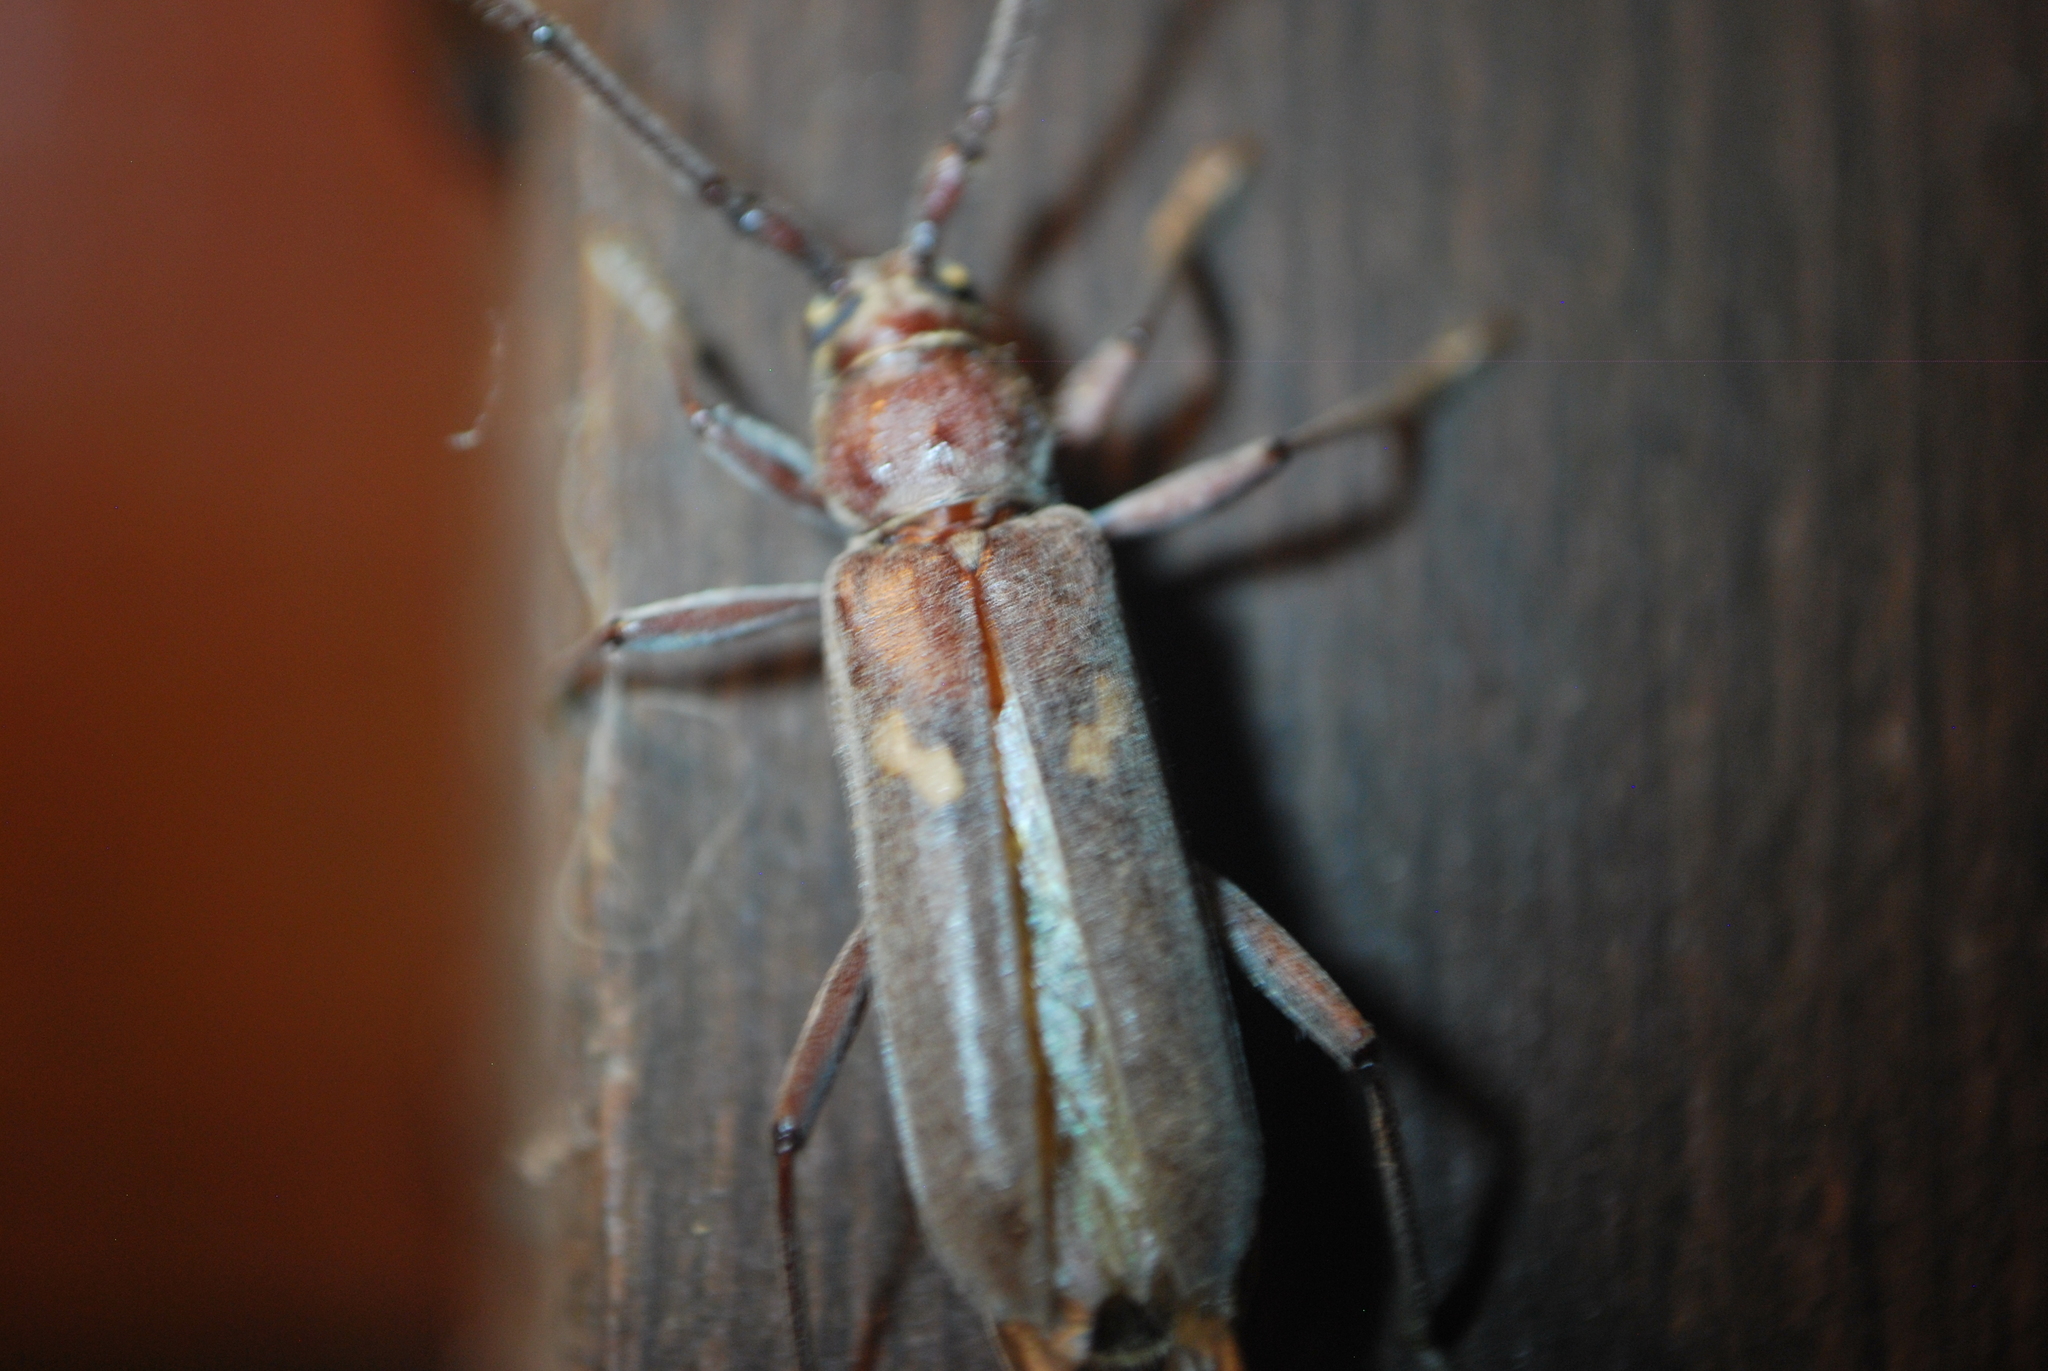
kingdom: Animalia
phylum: Arthropoda
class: Insecta
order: Coleoptera
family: Cerambycidae
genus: Knulliana
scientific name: Knulliana cincta
